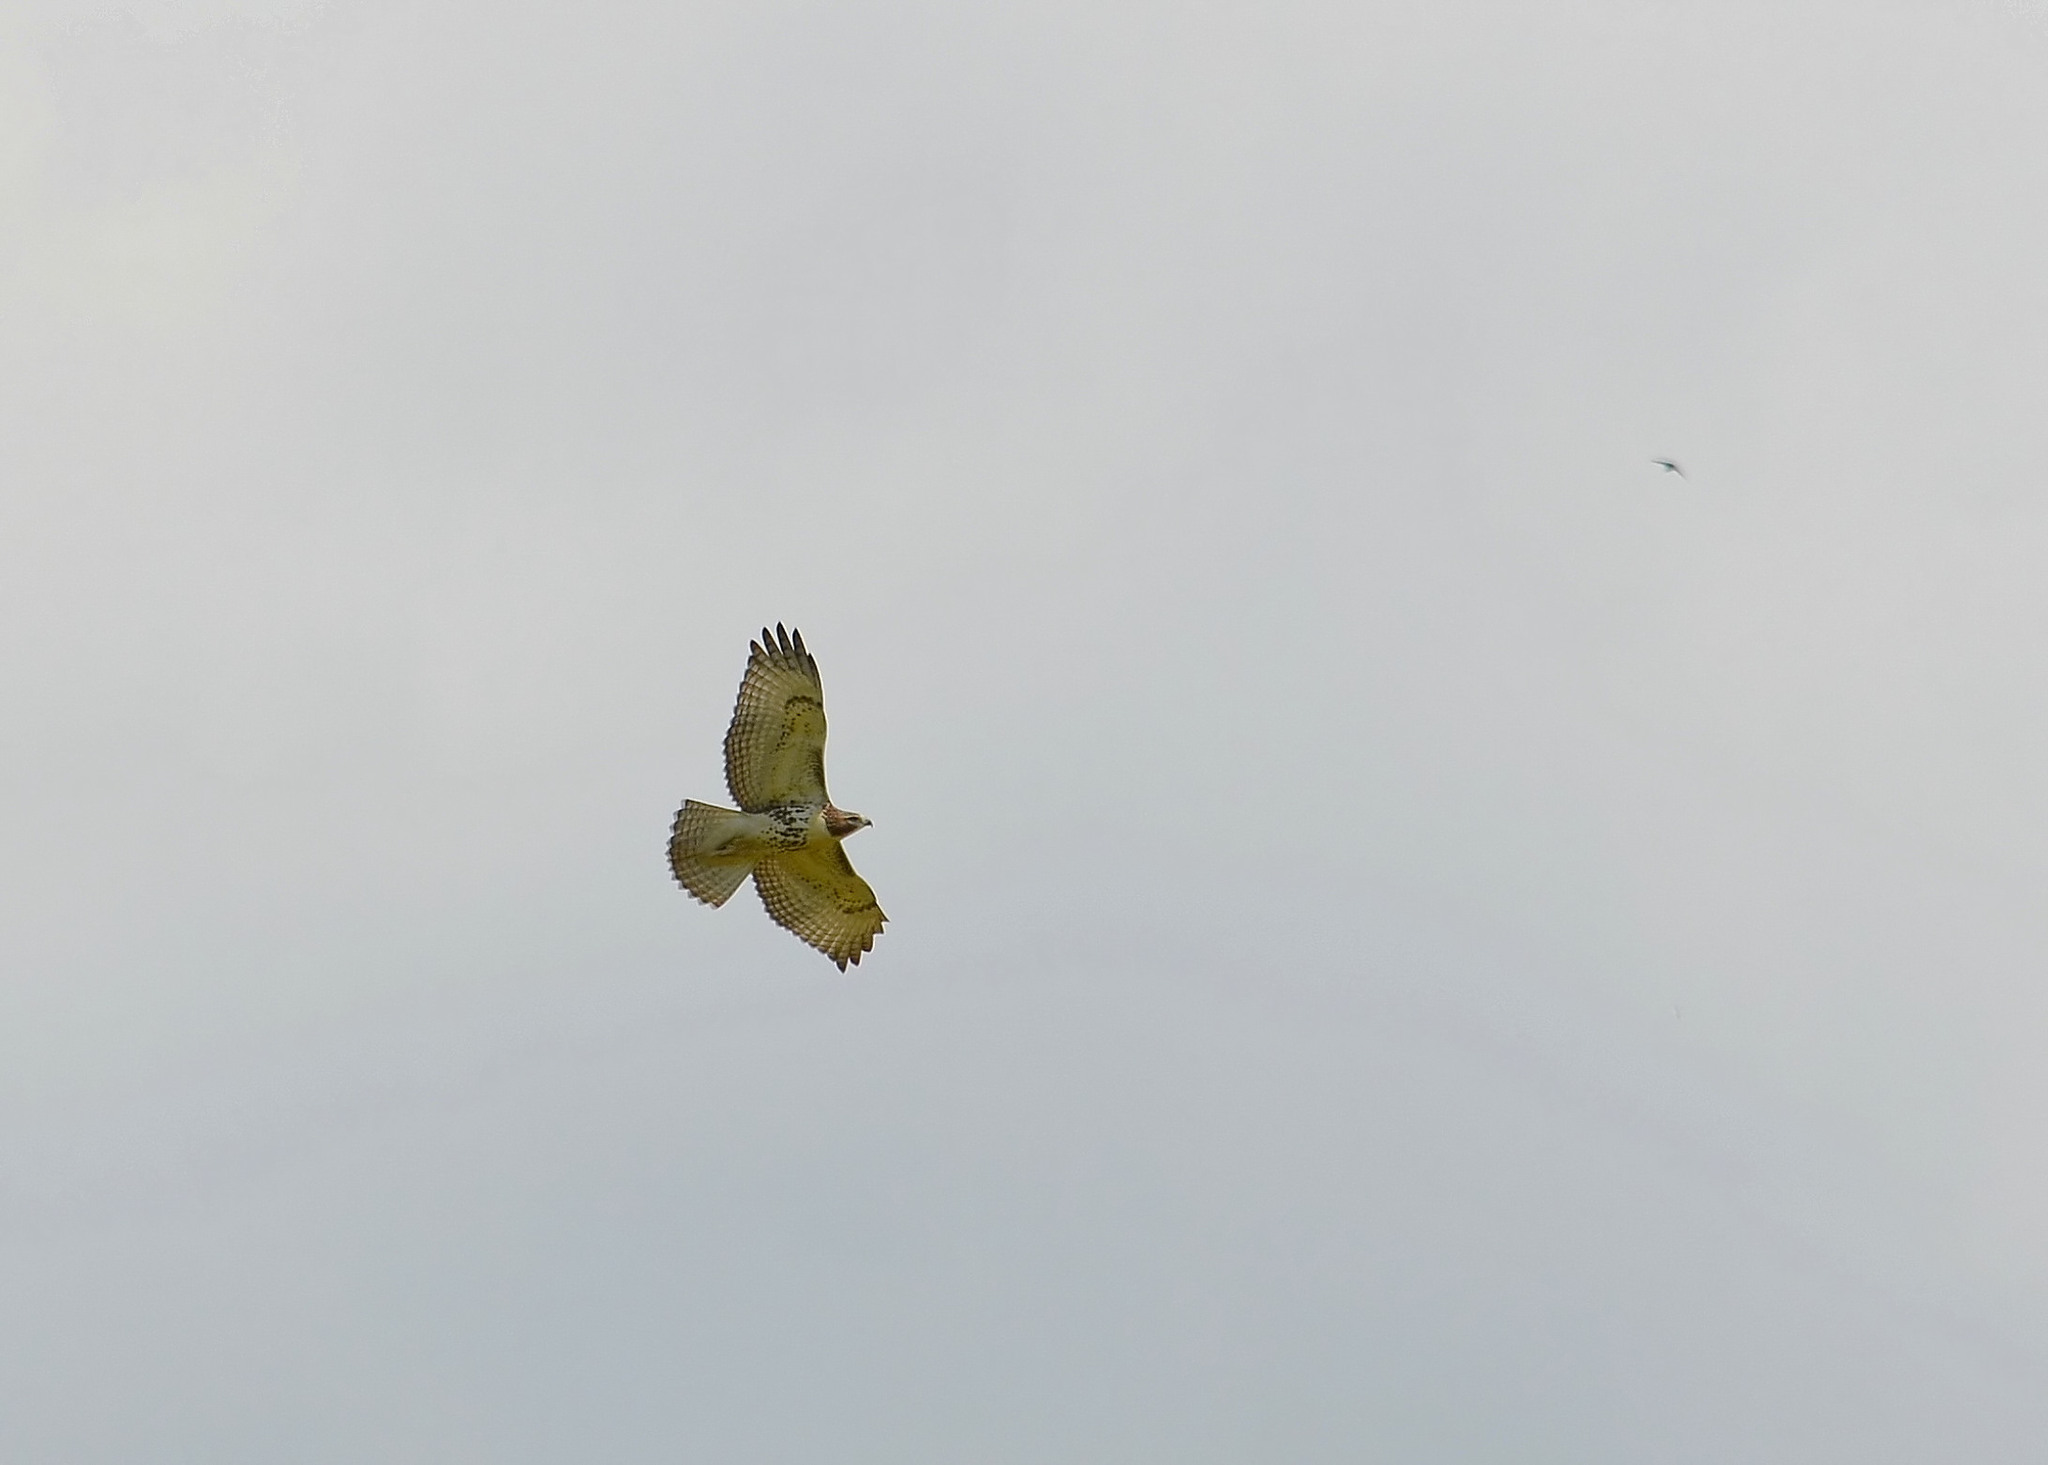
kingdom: Animalia
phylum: Chordata
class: Aves
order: Accipitriformes
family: Accipitridae
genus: Buteo
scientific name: Buteo jamaicensis
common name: Red-tailed hawk
